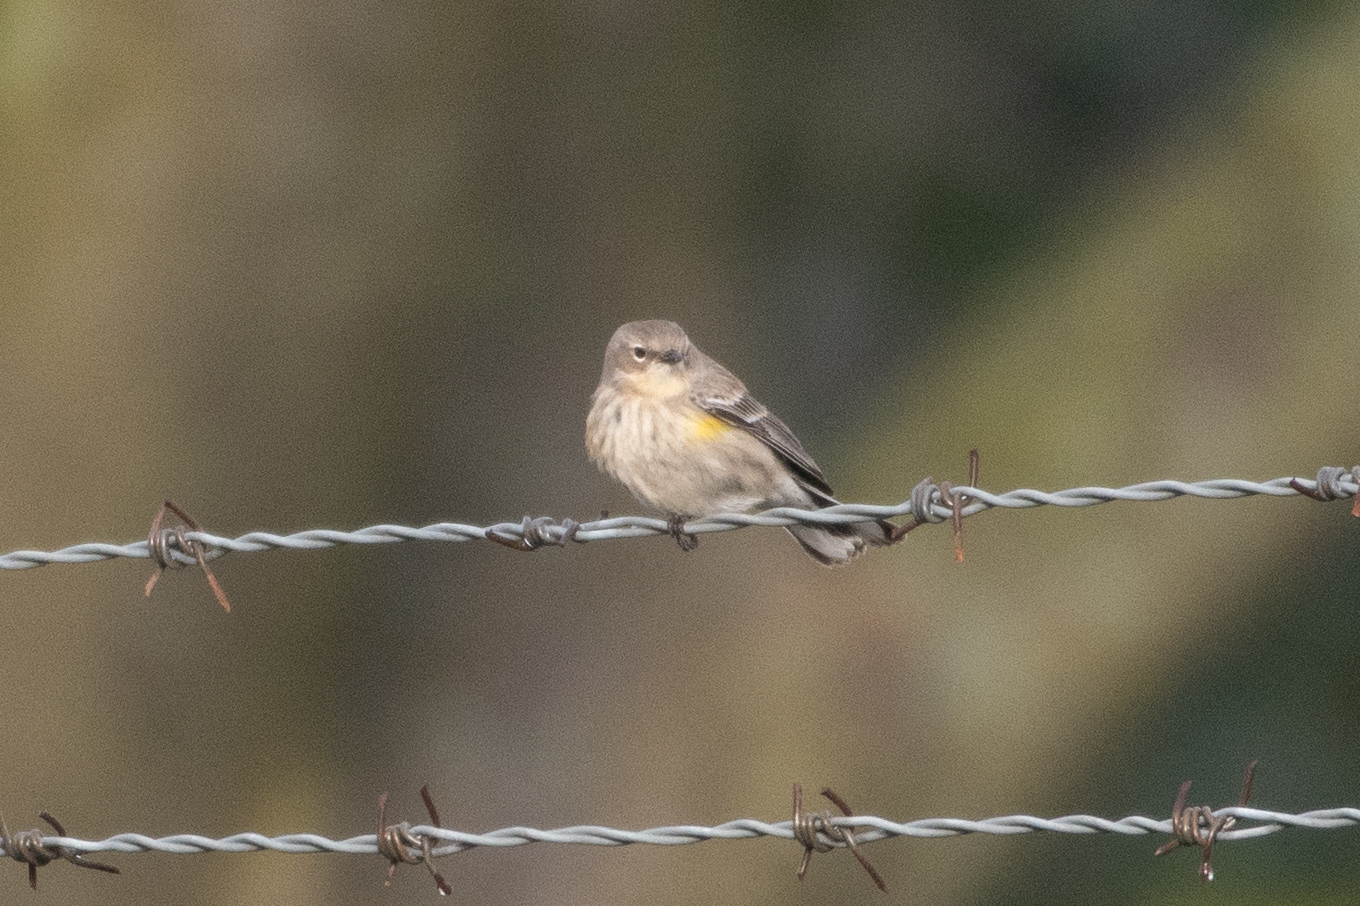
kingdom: Animalia
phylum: Chordata
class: Aves
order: Passeriformes
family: Parulidae
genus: Setophaga
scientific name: Setophaga coronata
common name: Myrtle warbler
